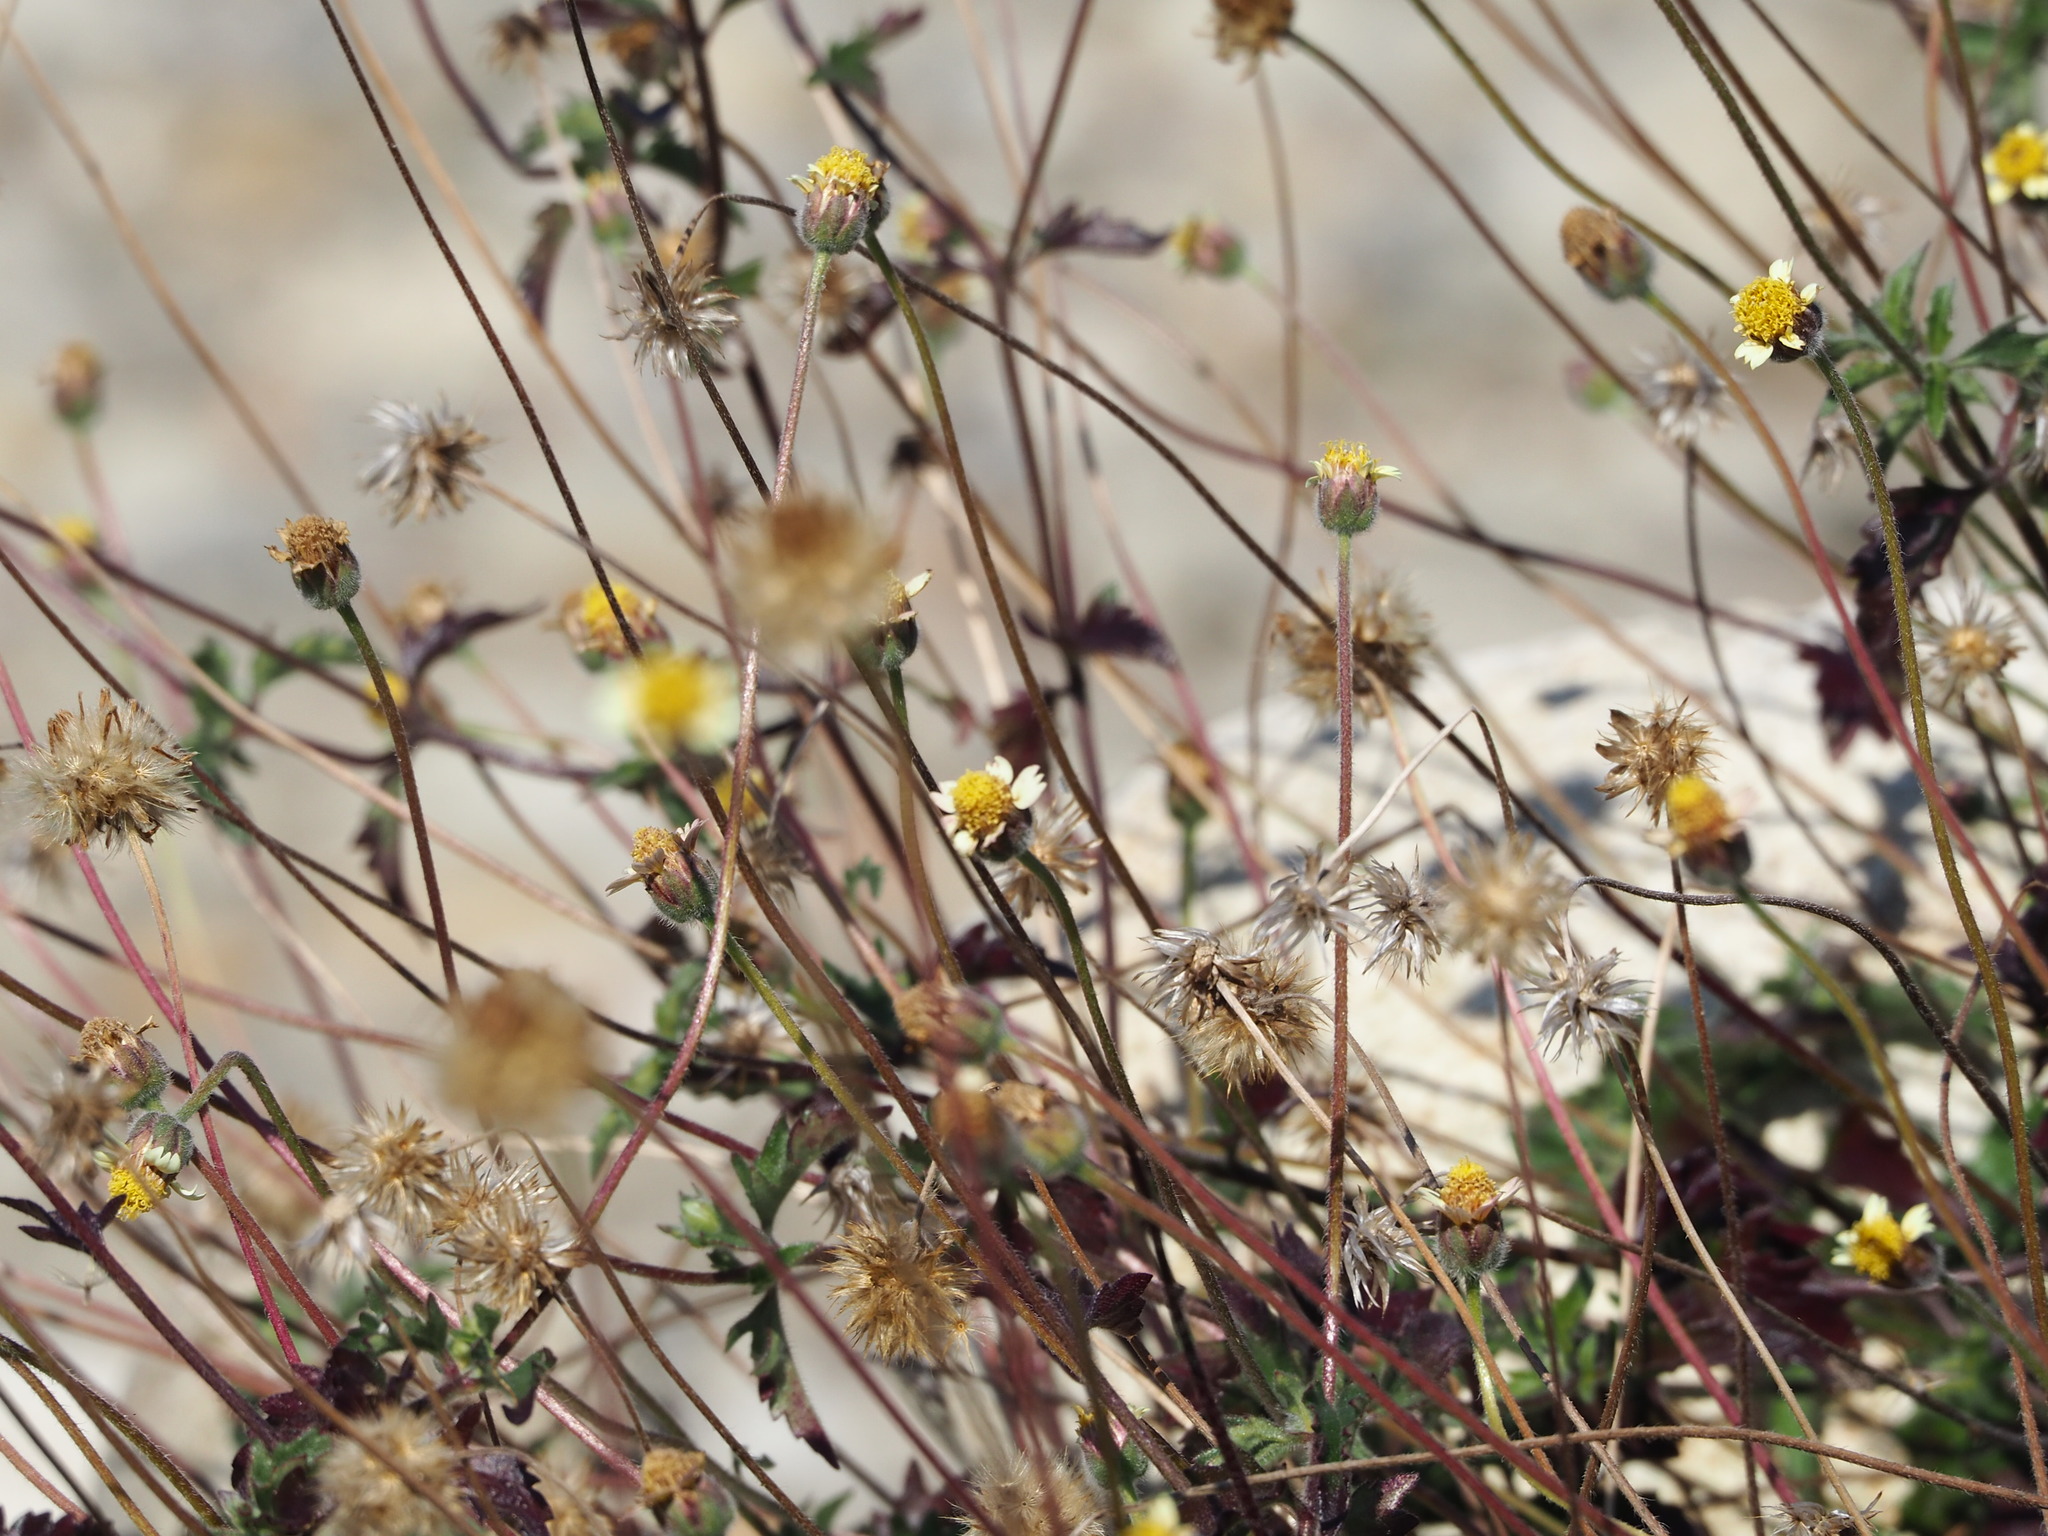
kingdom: Plantae
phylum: Tracheophyta
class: Magnoliopsida
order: Asterales
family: Asteraceae
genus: Tridax
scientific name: Tridax procumbens
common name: Coatbuttons
